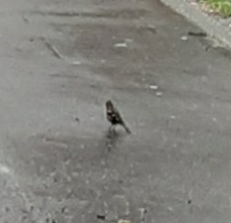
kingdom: Animalia
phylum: Chordata
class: Aves
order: Passeriformes
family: Fringillidae
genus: Fringilla
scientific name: Fringilla coelebs
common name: Common chaffinch
